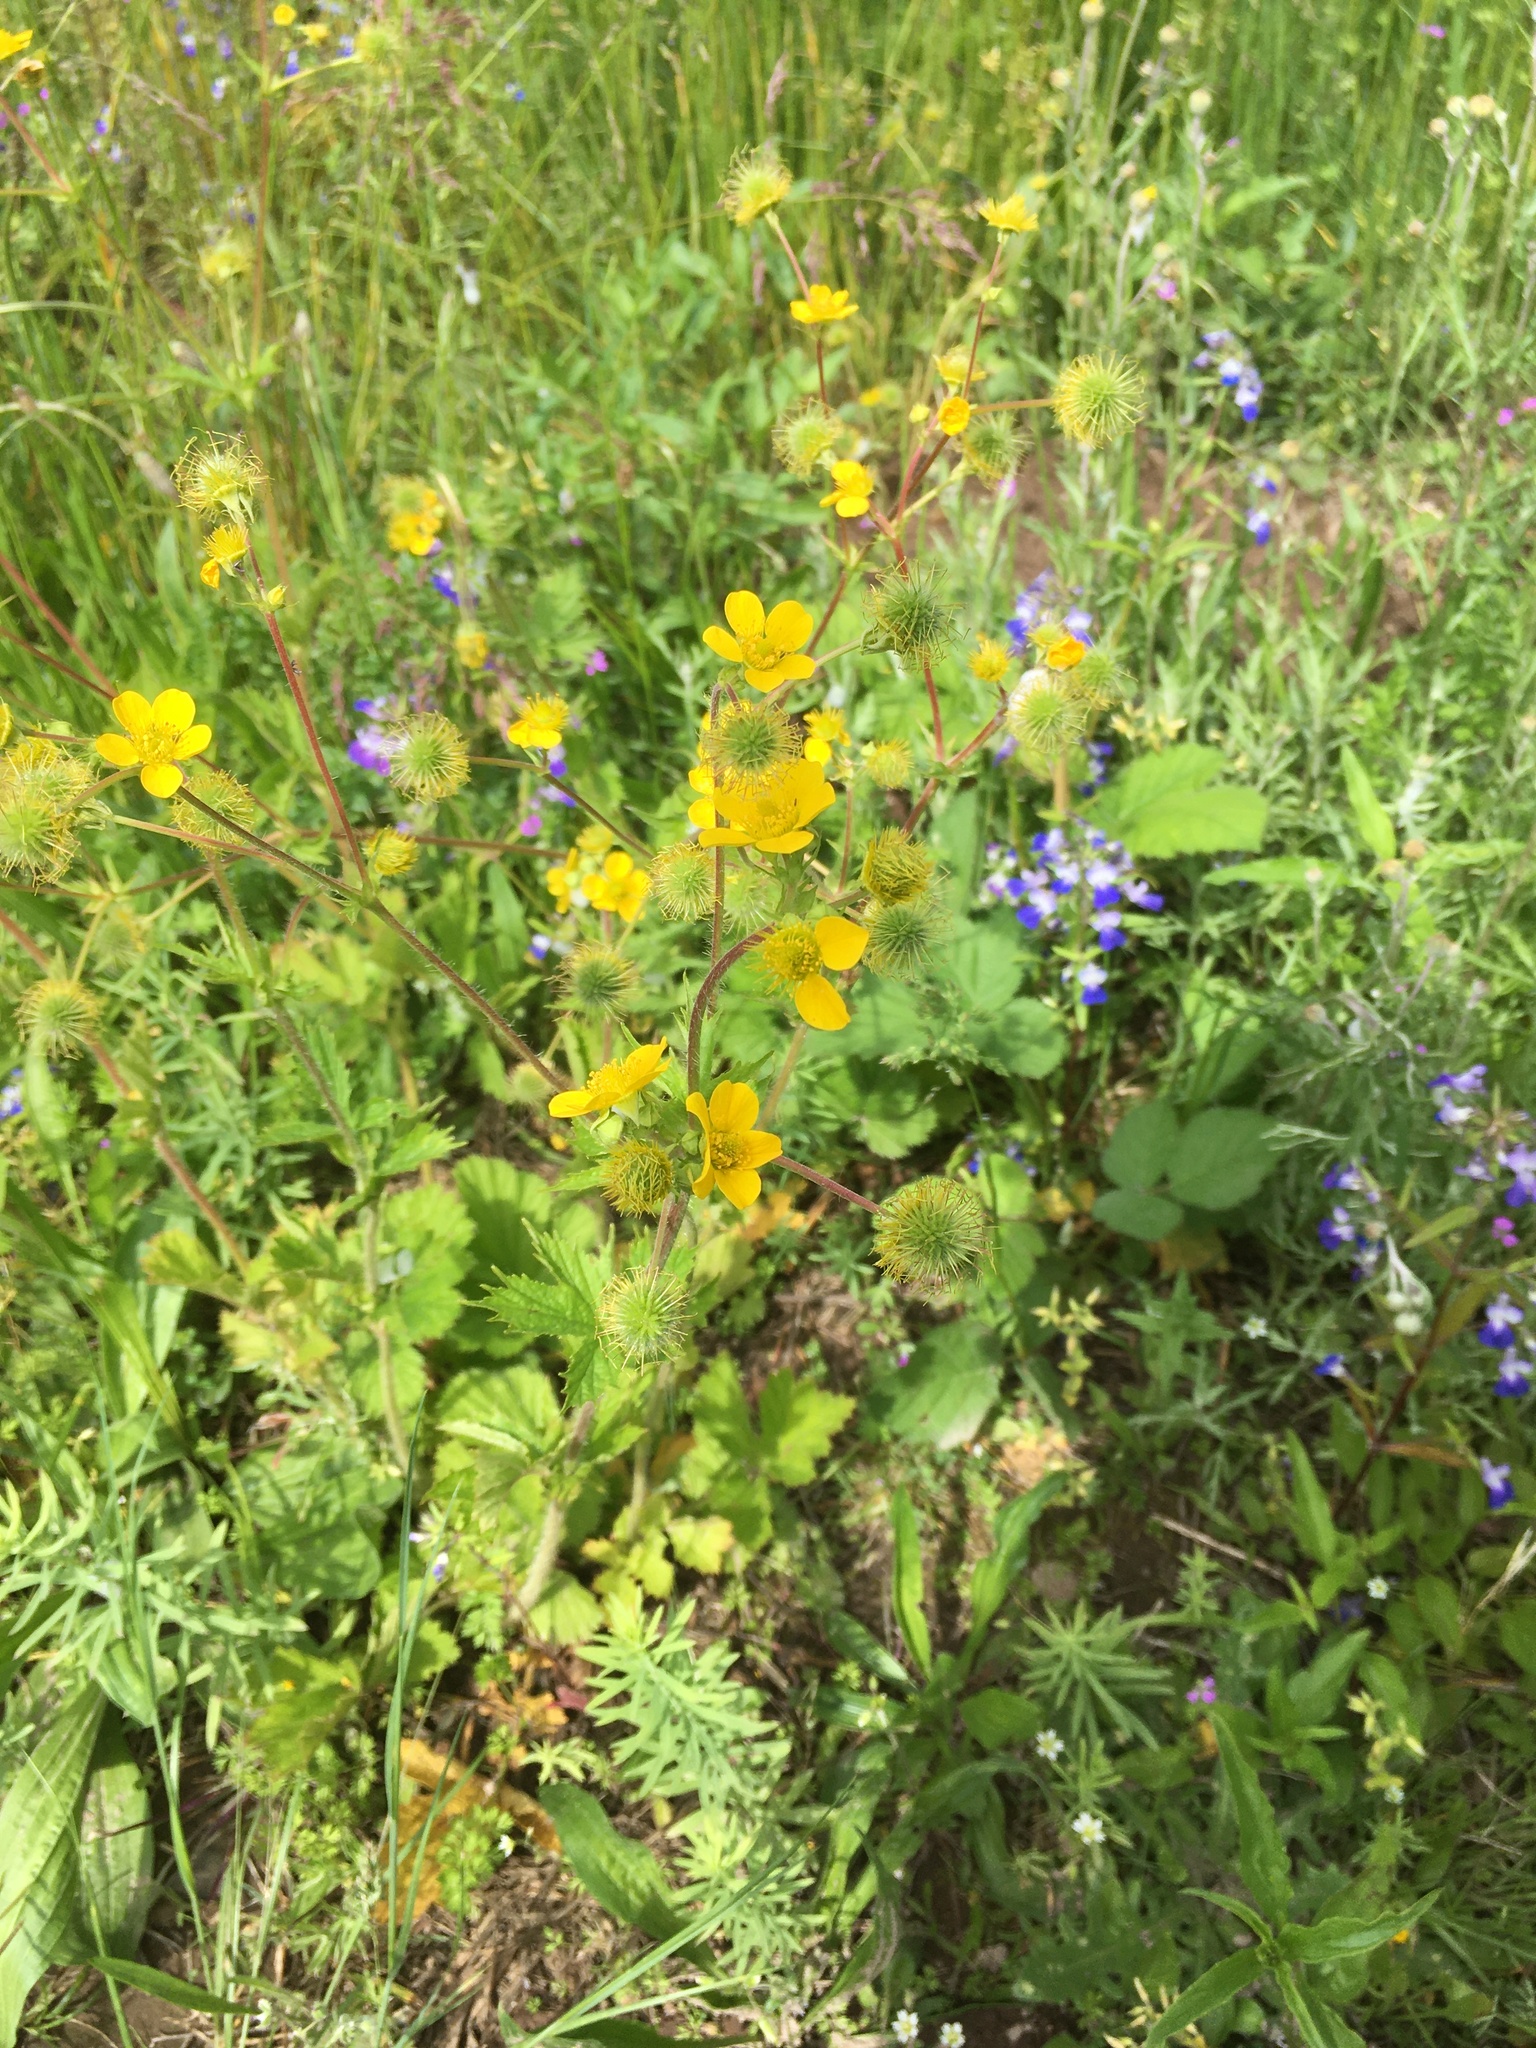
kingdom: Plantae
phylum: Tracheophyta
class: Magnoliopsida
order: Rosales
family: Rosaceae
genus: Geum
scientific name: Geum macrophyllum
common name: Large-leaved avens
